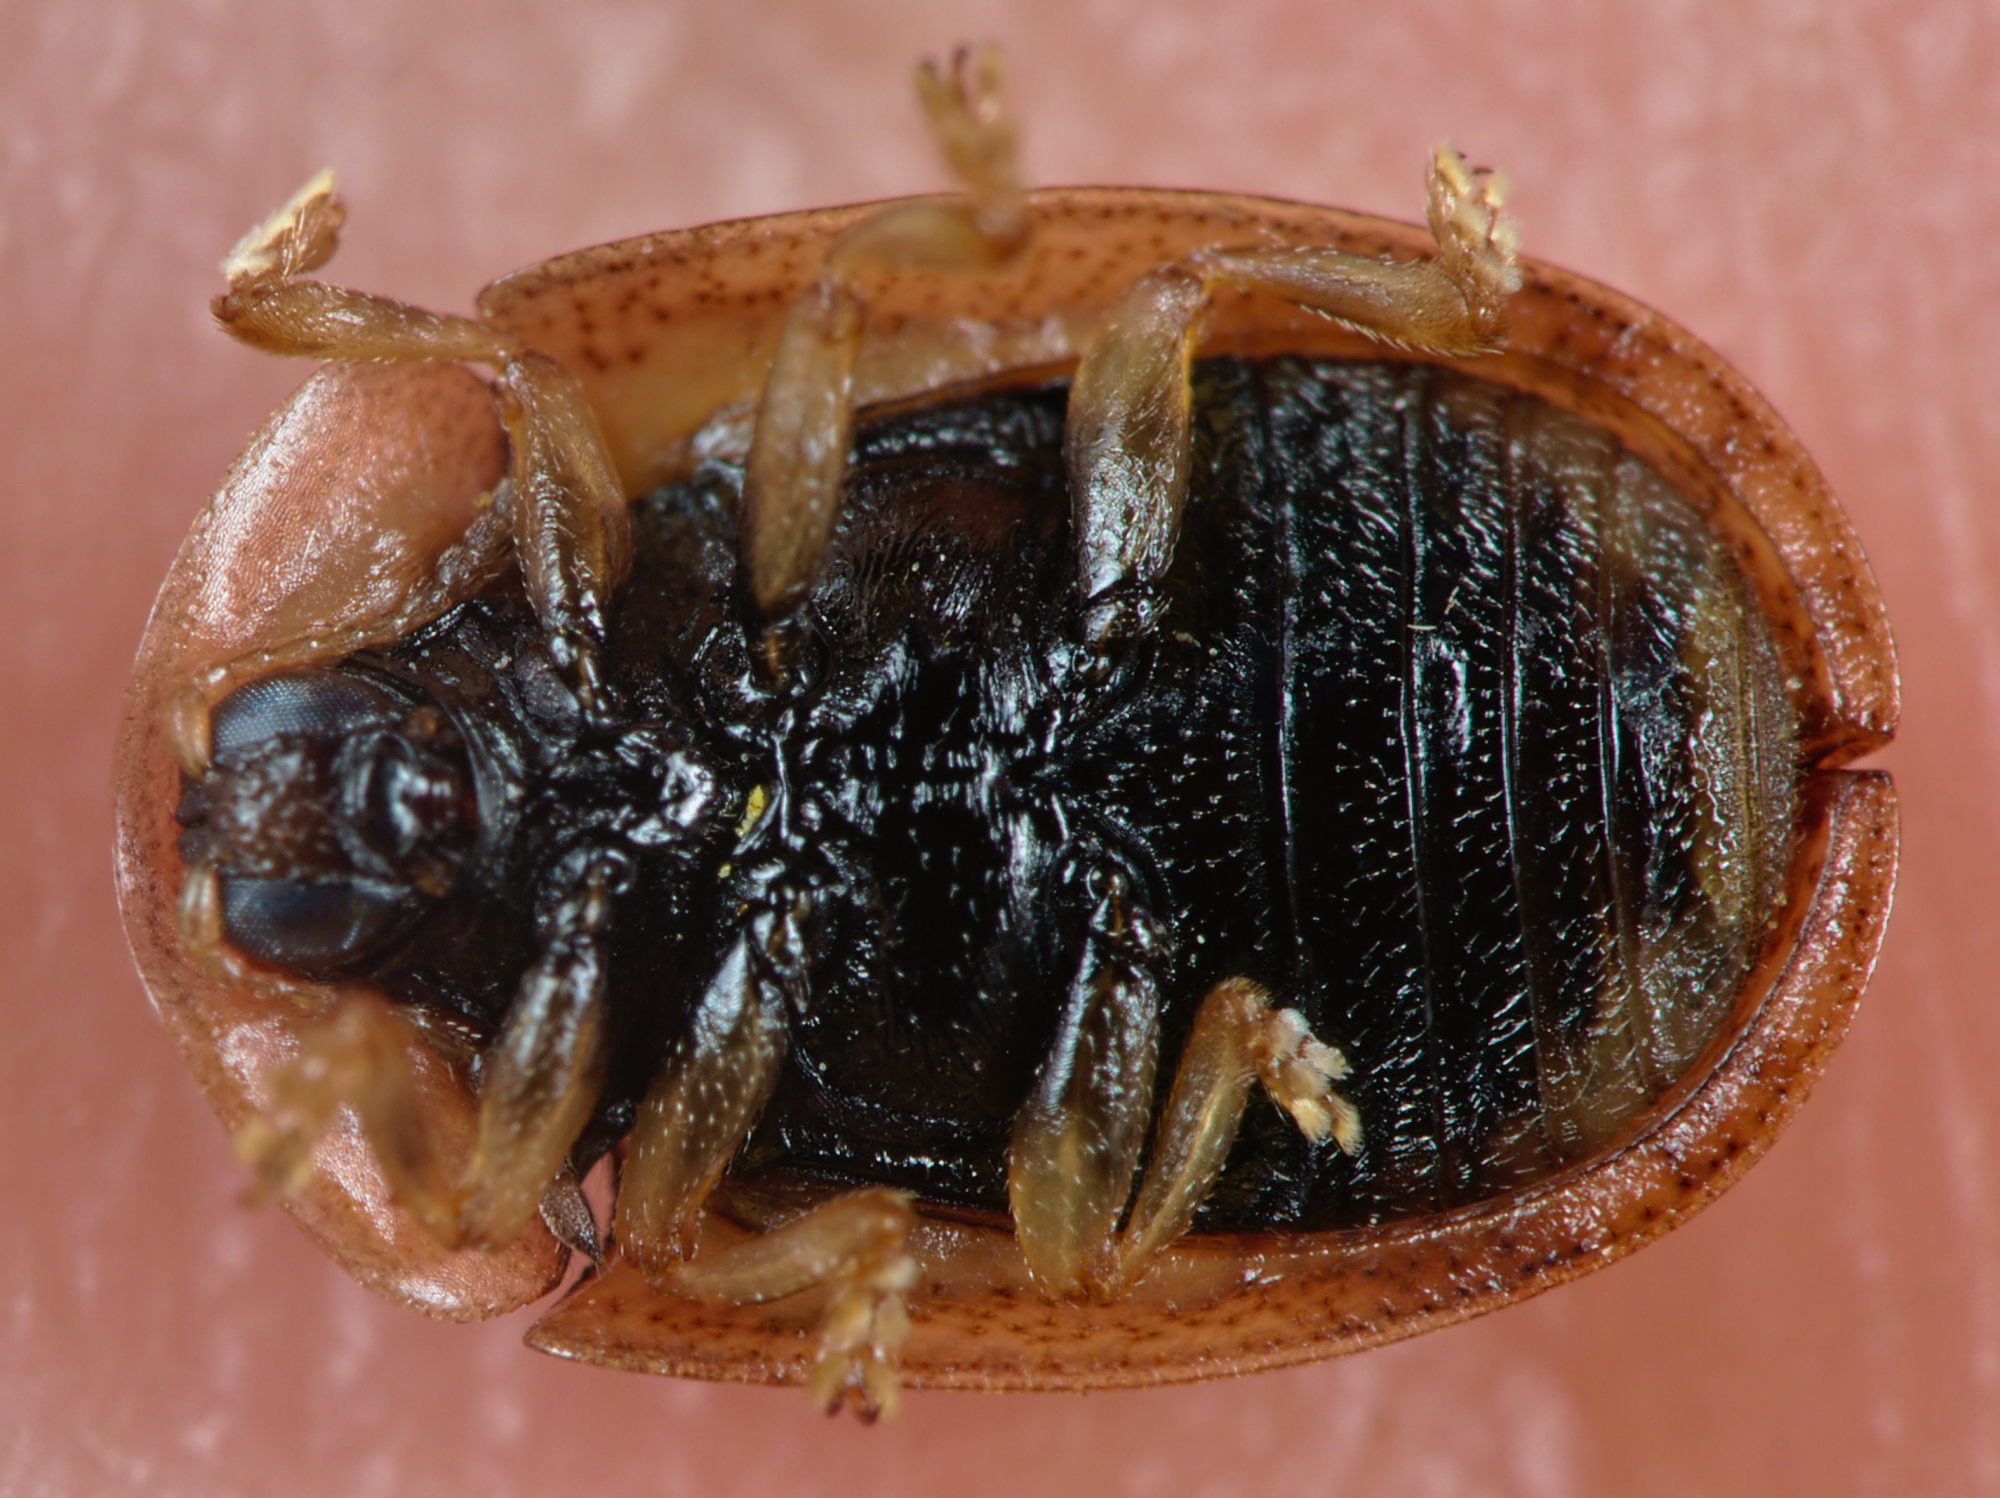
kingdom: Animalia
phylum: Arthropoda
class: Insecta
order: Coleoptera
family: Chrysomelidae
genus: Hypocassida
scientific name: Hypocassida subferruginea
